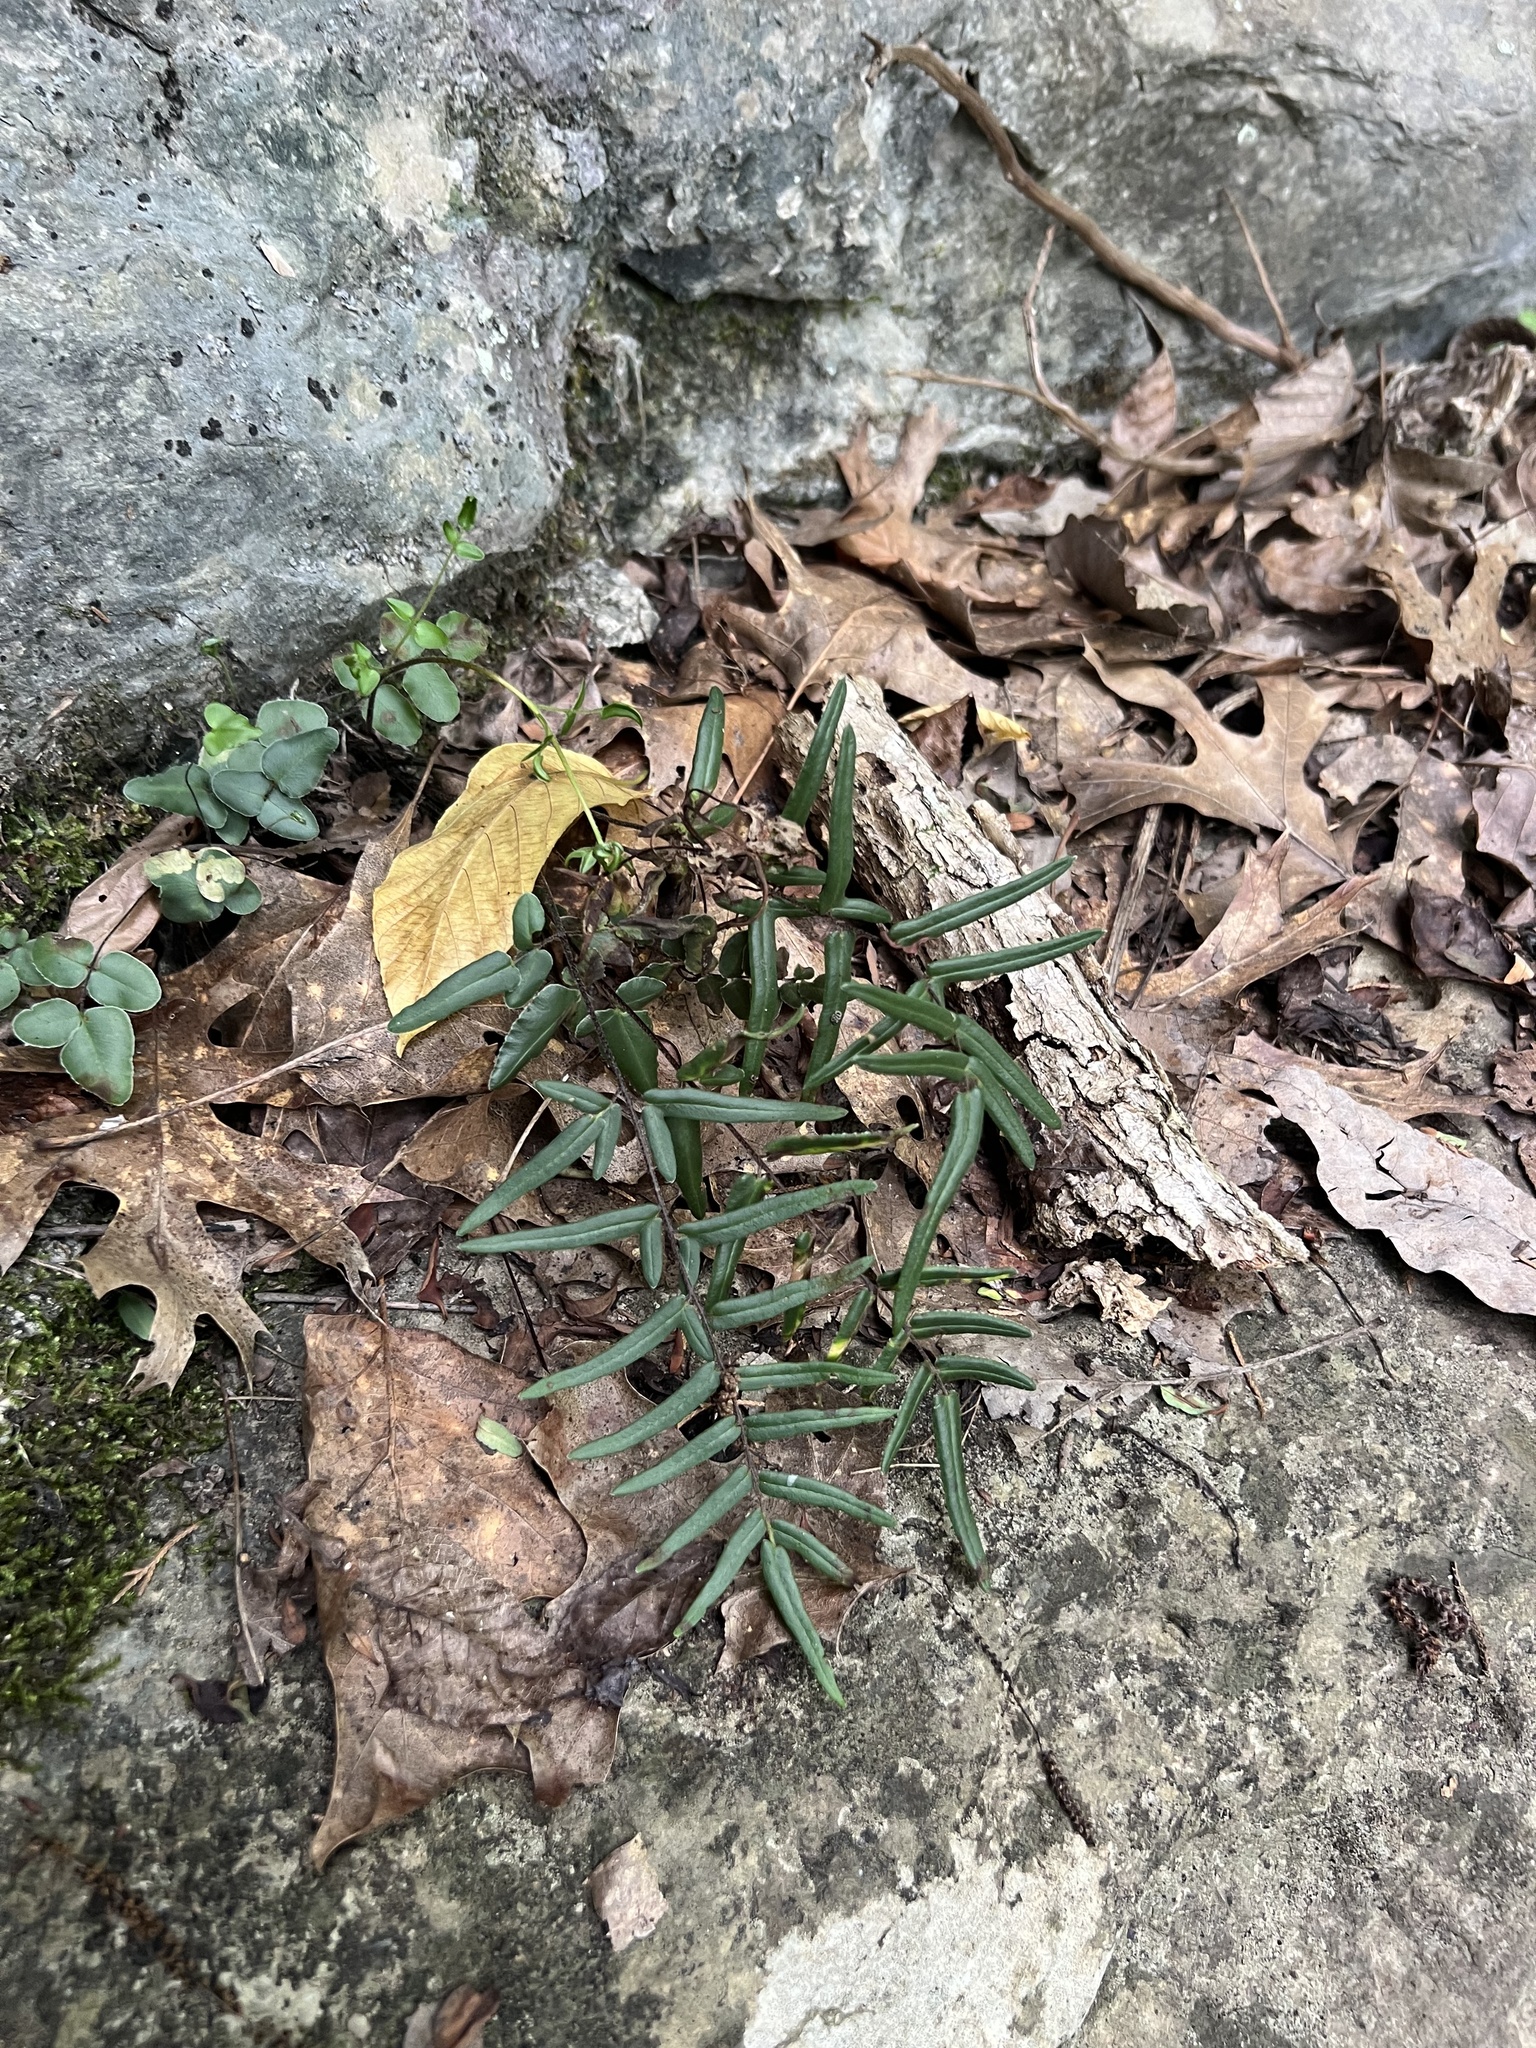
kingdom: Plantae
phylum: Tracheophyta
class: Polypodiopsida
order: Polypodiales
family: Pteridaceae
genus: Pellaea
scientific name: Pellaea atropurpurea
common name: Hairy cliffbrake
